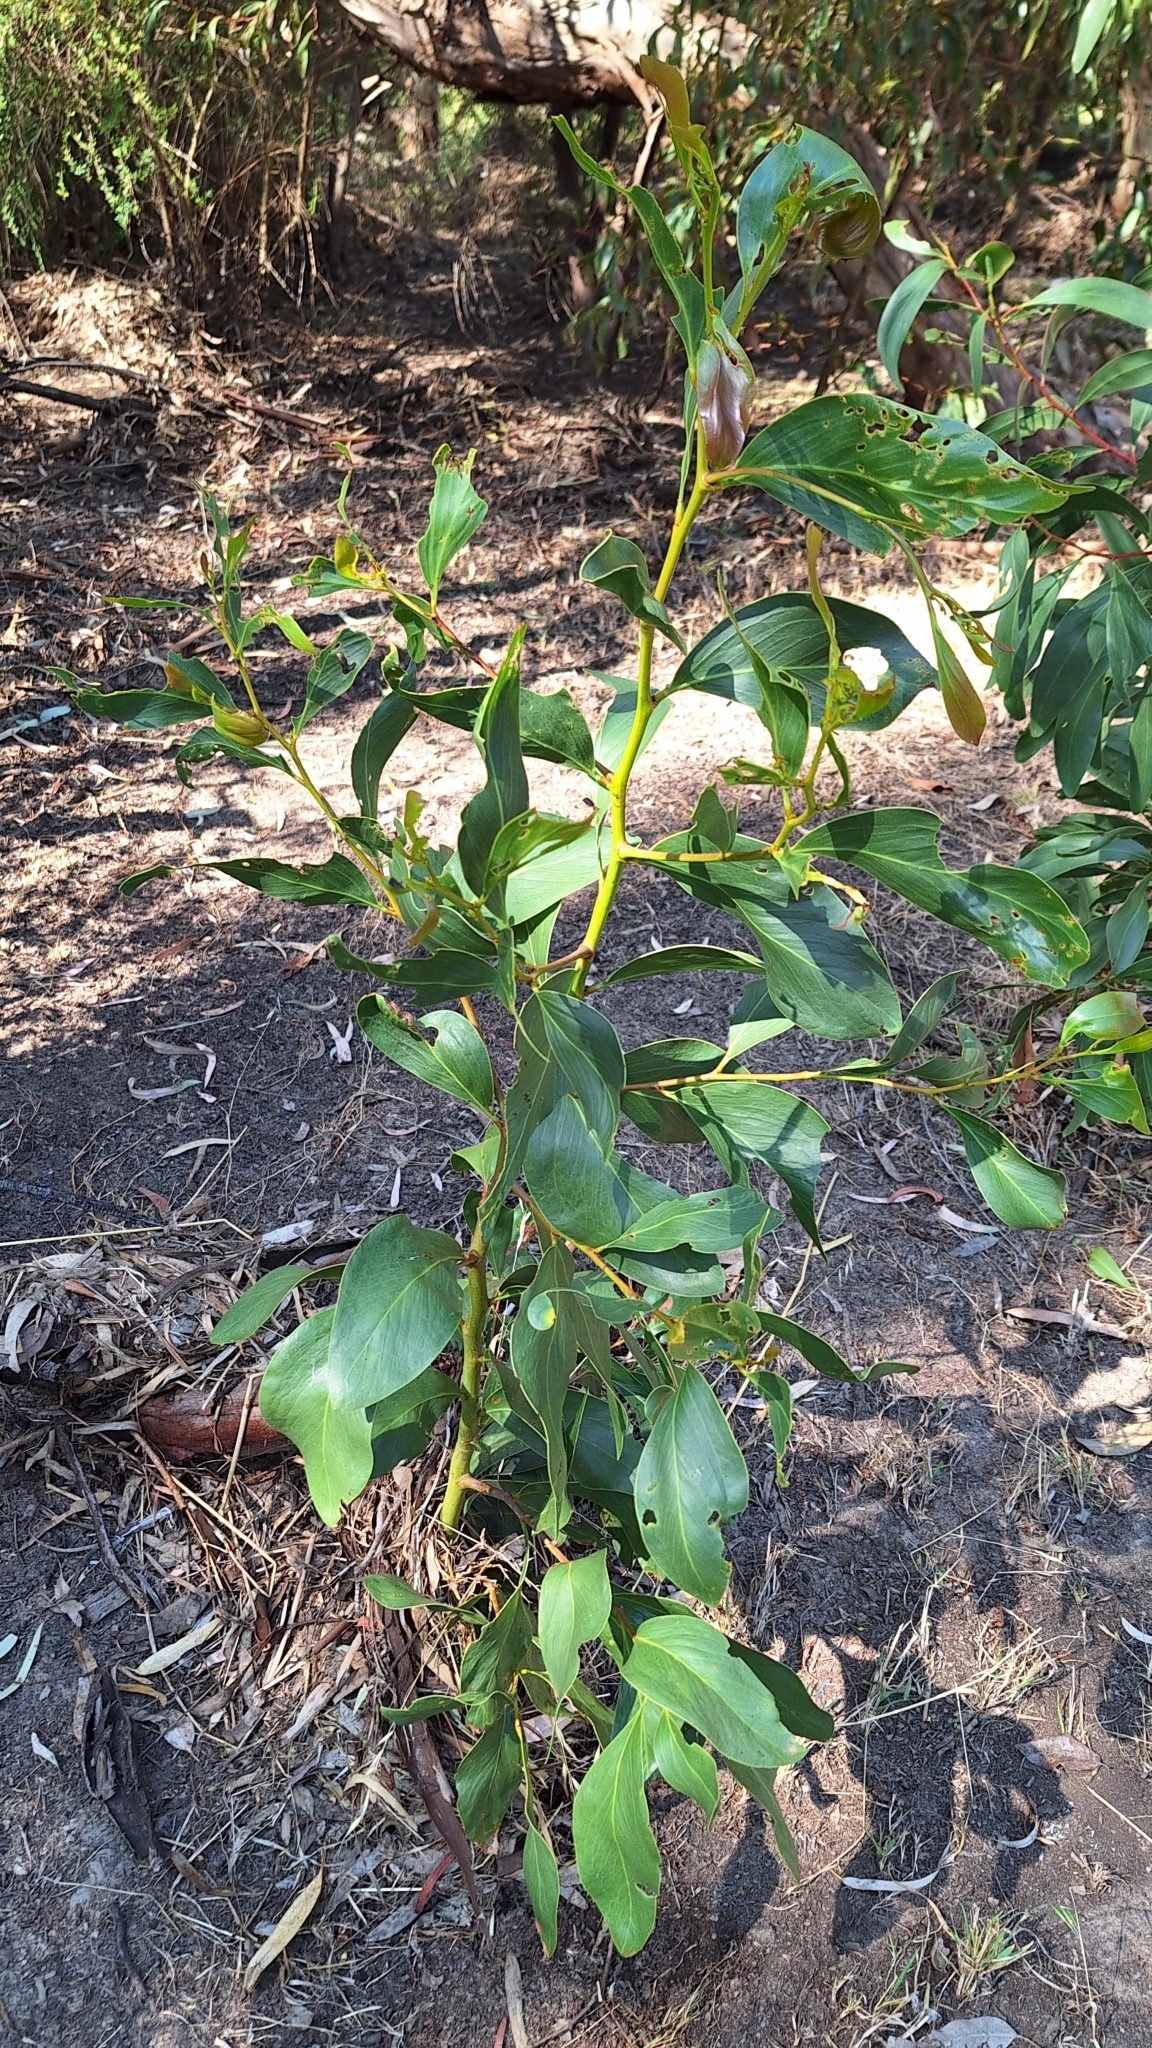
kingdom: Plantae
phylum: Tracheophyta
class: Magnoliopsida
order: Fabales
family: Fabaceae
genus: Acacia
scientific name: Acacia pycnantha
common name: Golden wattle
